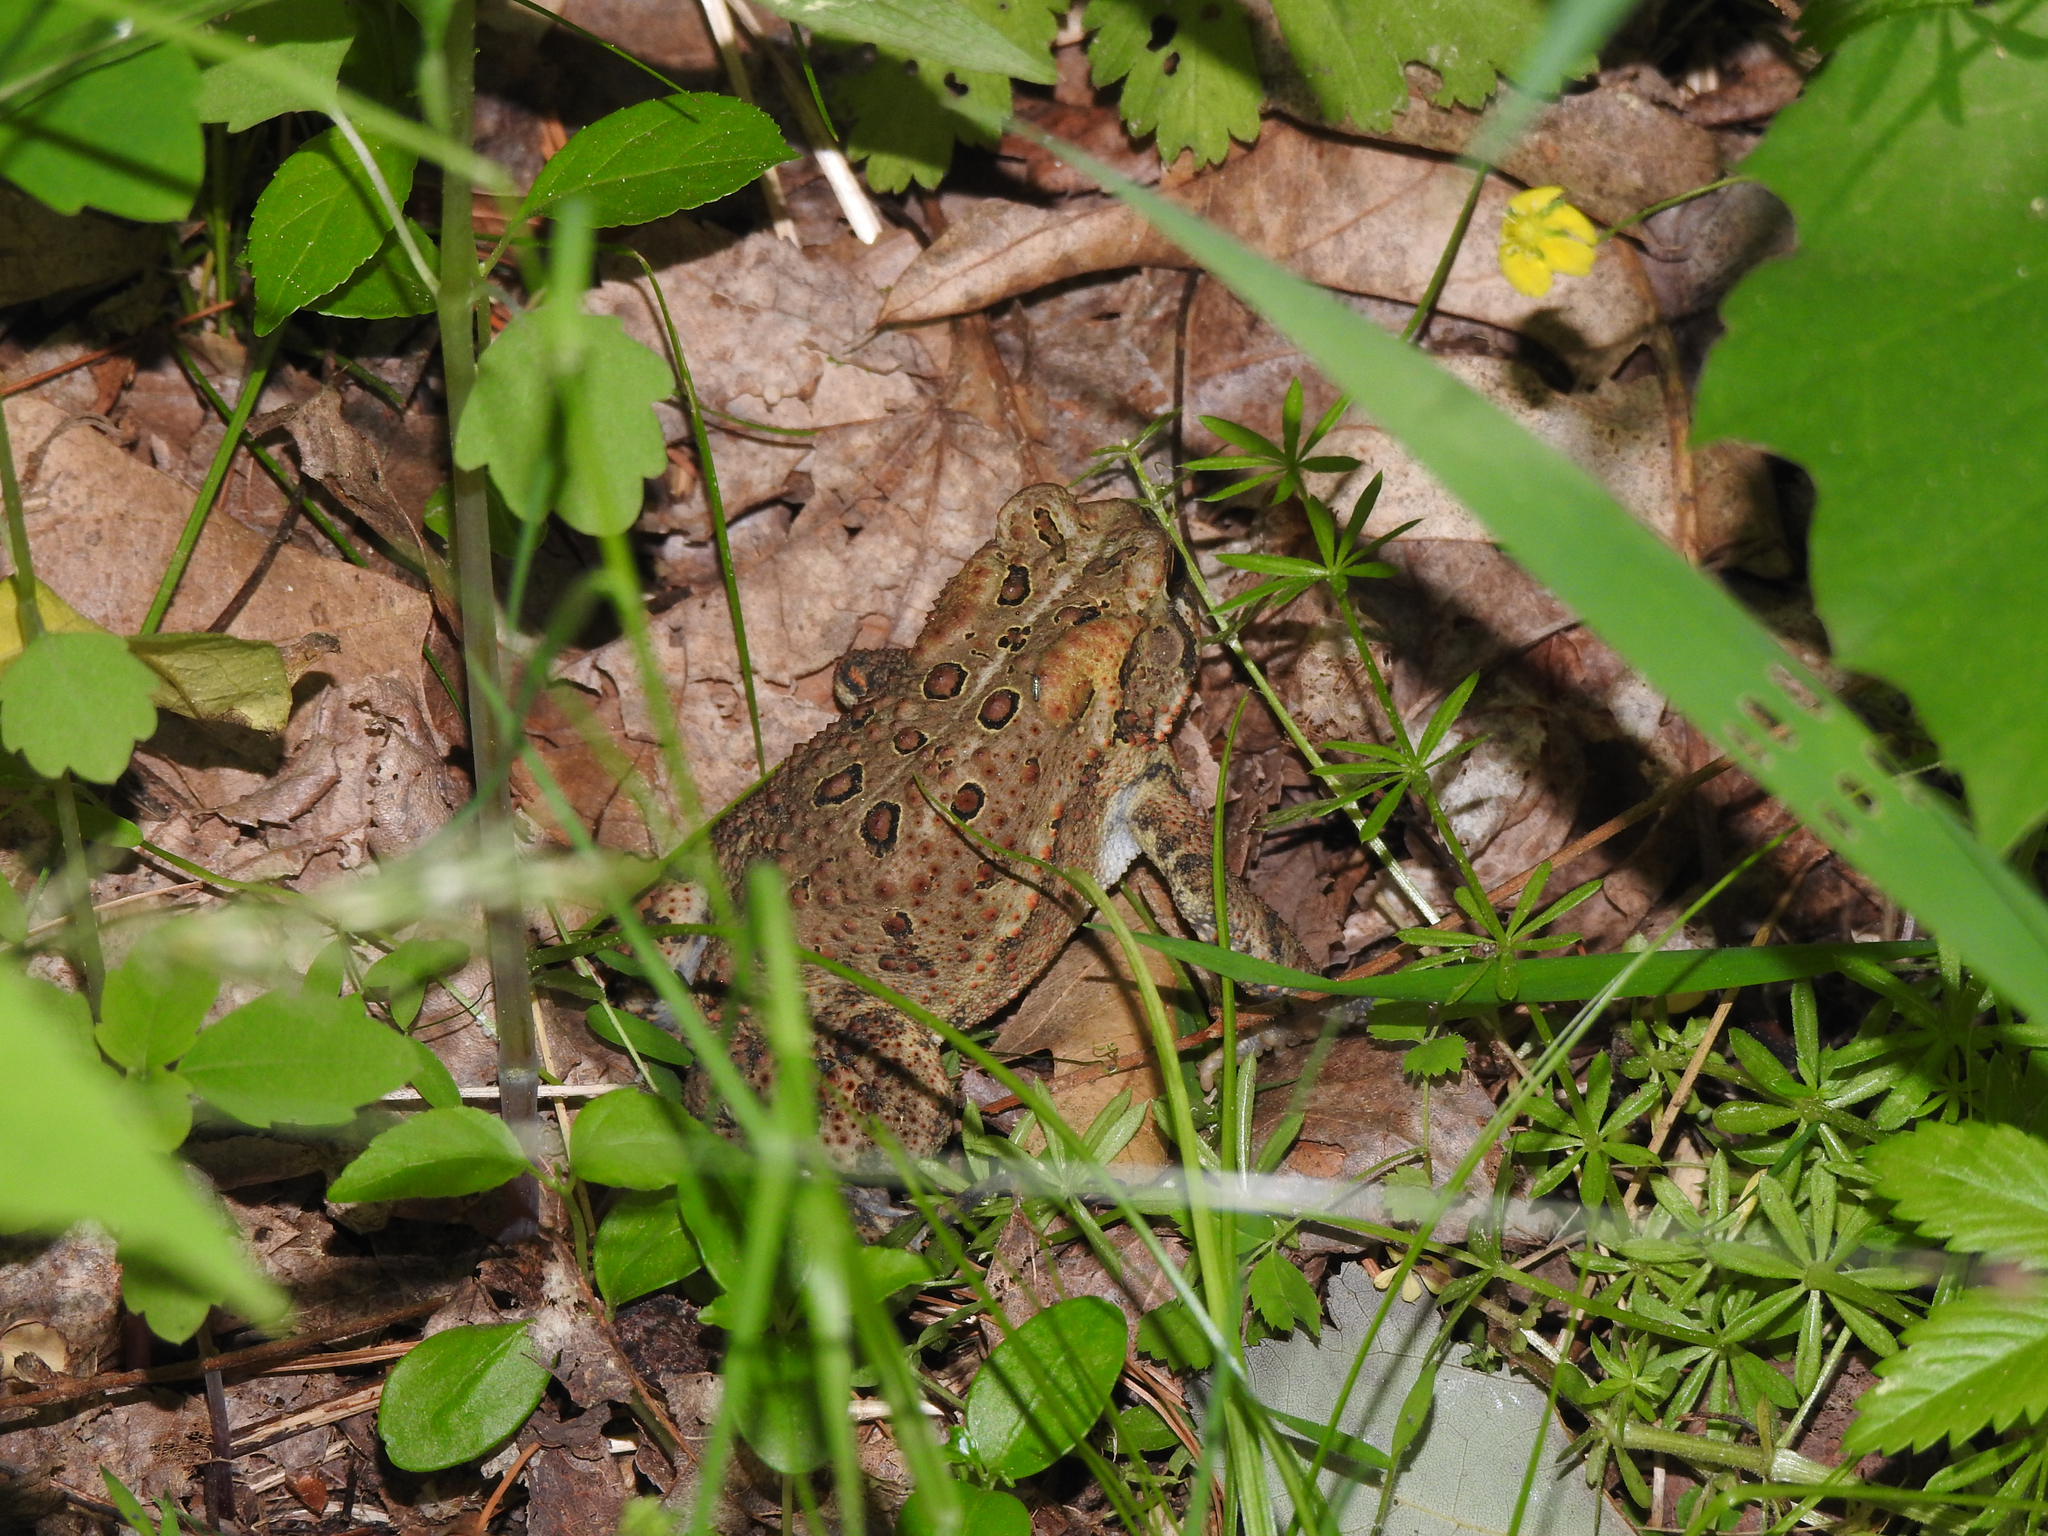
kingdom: Animalia
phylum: Chordata
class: Amphibia
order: Anura
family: Bufonidae
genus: Anaxyrus
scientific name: Anaxyrus americanus
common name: American toad
